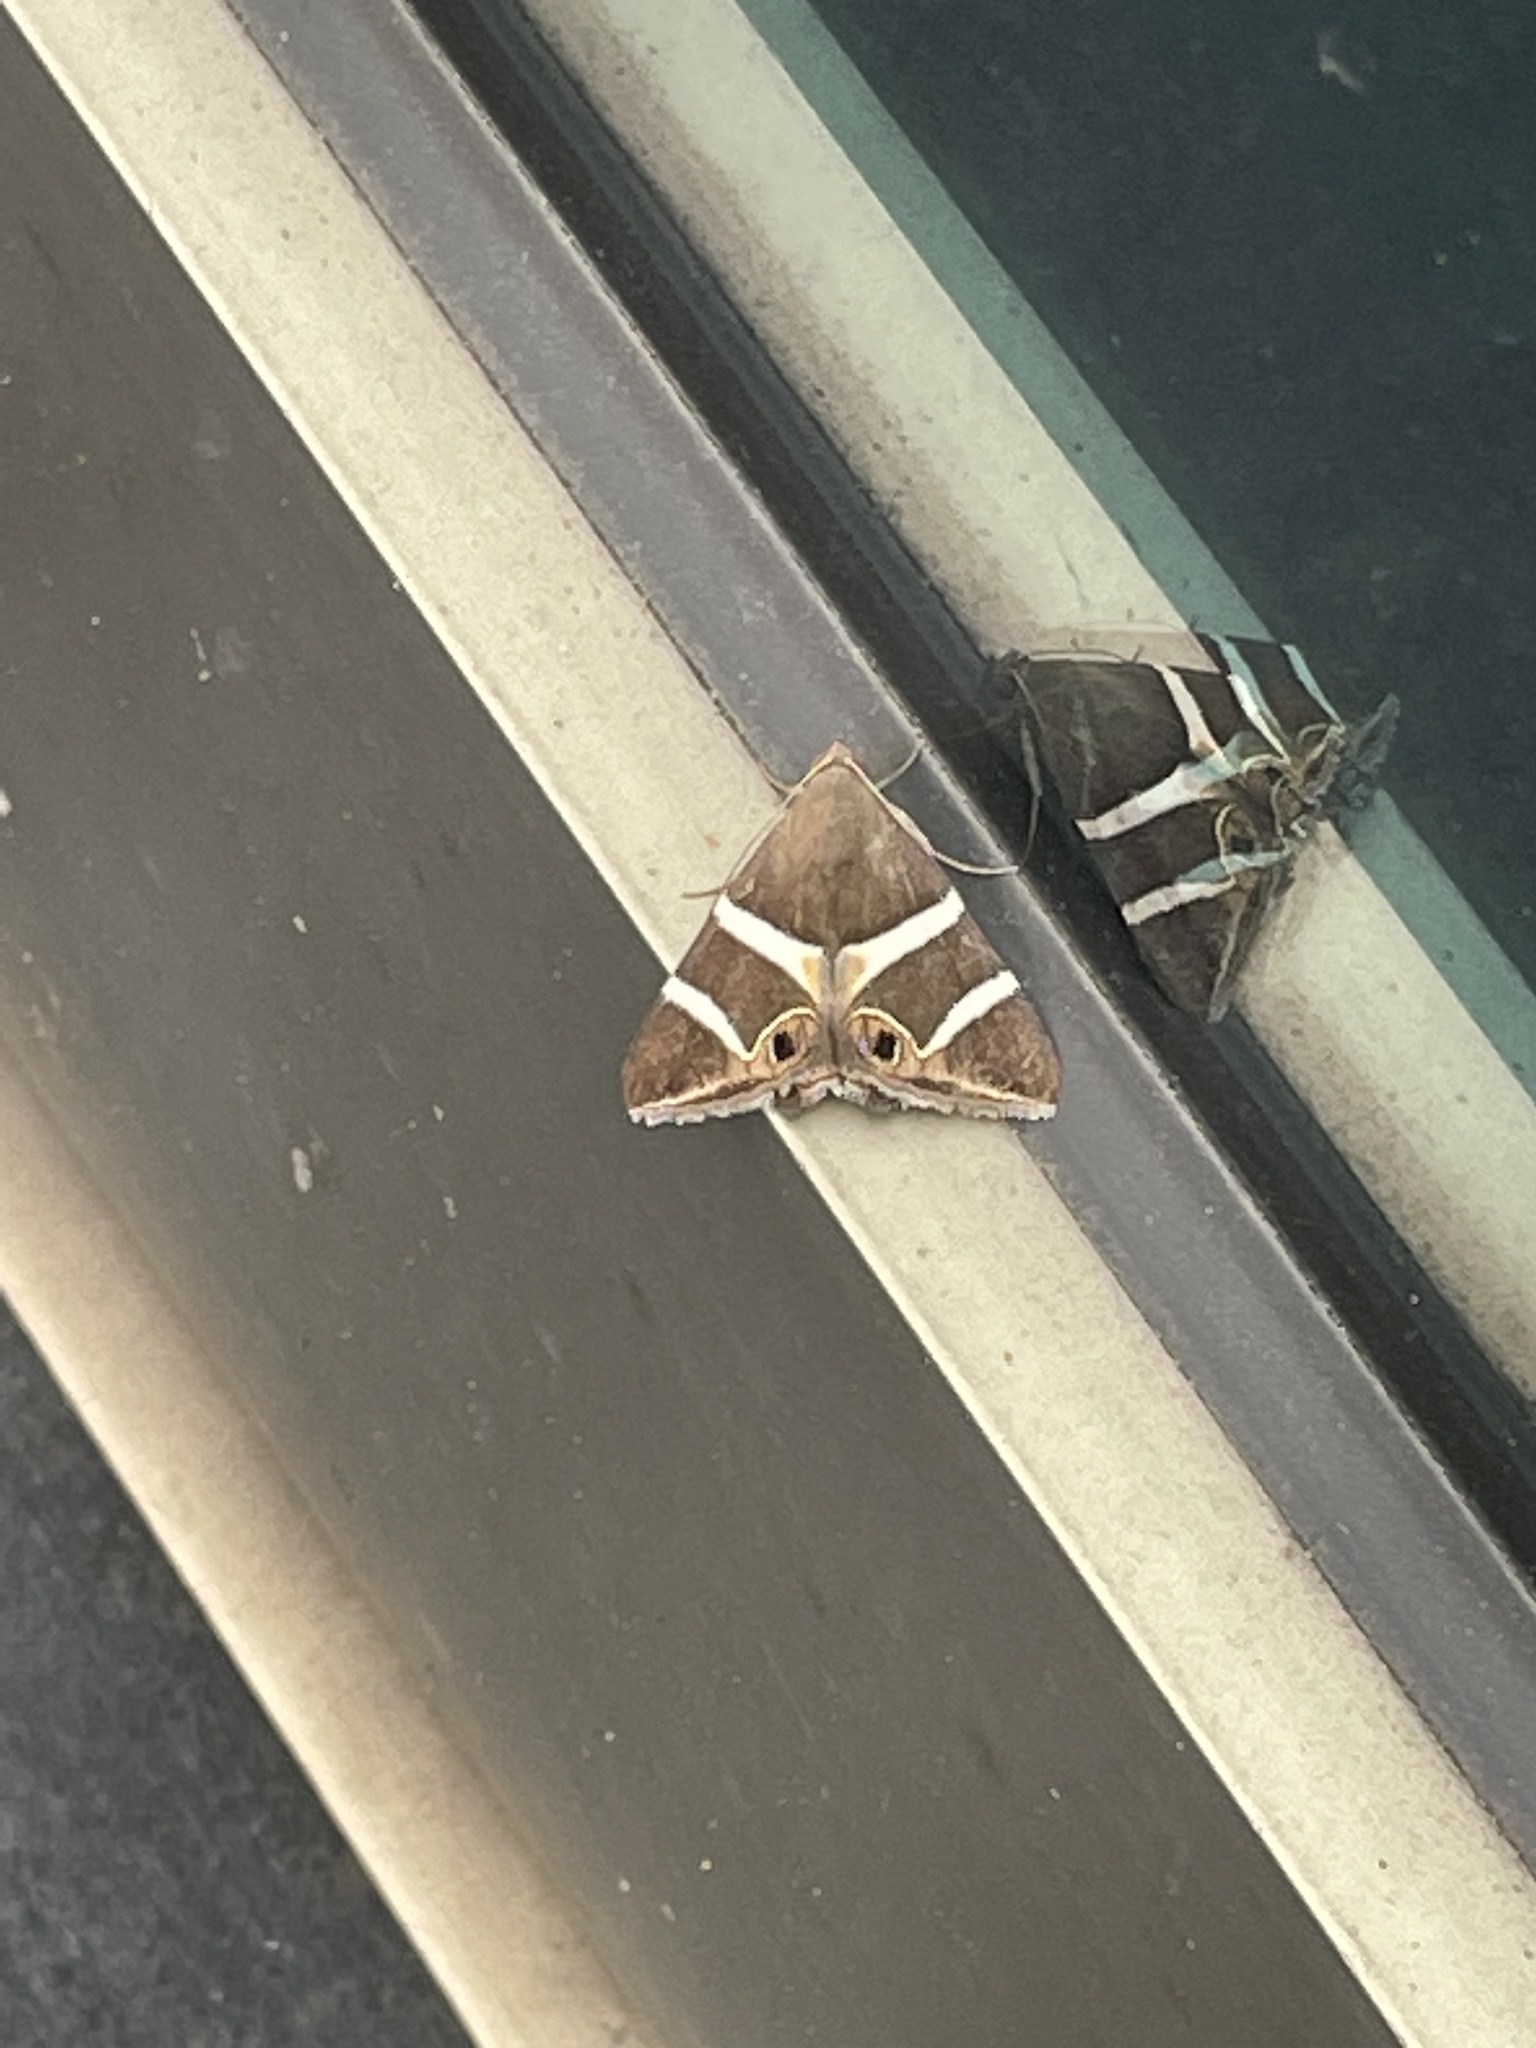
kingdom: Animalia
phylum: Arthropoda
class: Insecta
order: Lepidoptera
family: Erebidae
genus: Grammodes
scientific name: Grammodes oculicola
